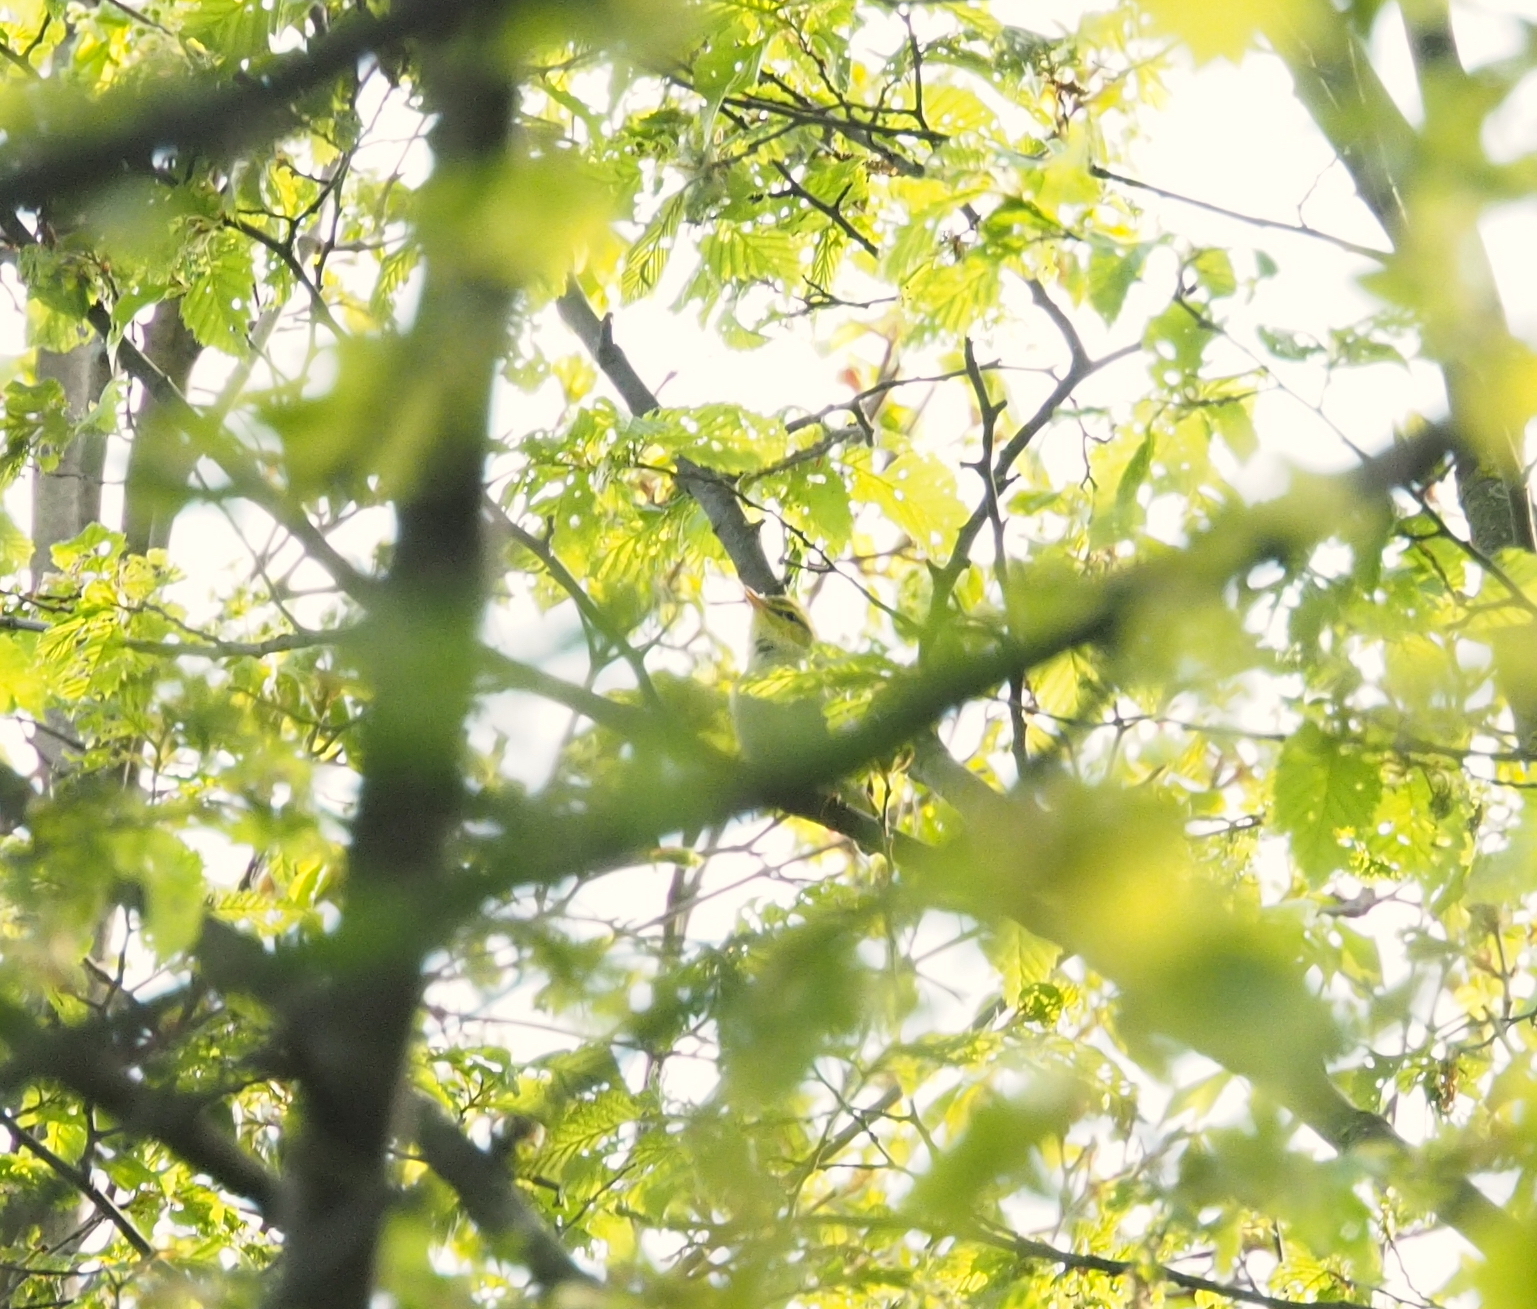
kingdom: Animalia
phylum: Chordata
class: Aves
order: Passeriformes
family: Phylloscopidae
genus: Phylloscopus
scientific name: Phylloscopus sibillatrix
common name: Wood warbler
